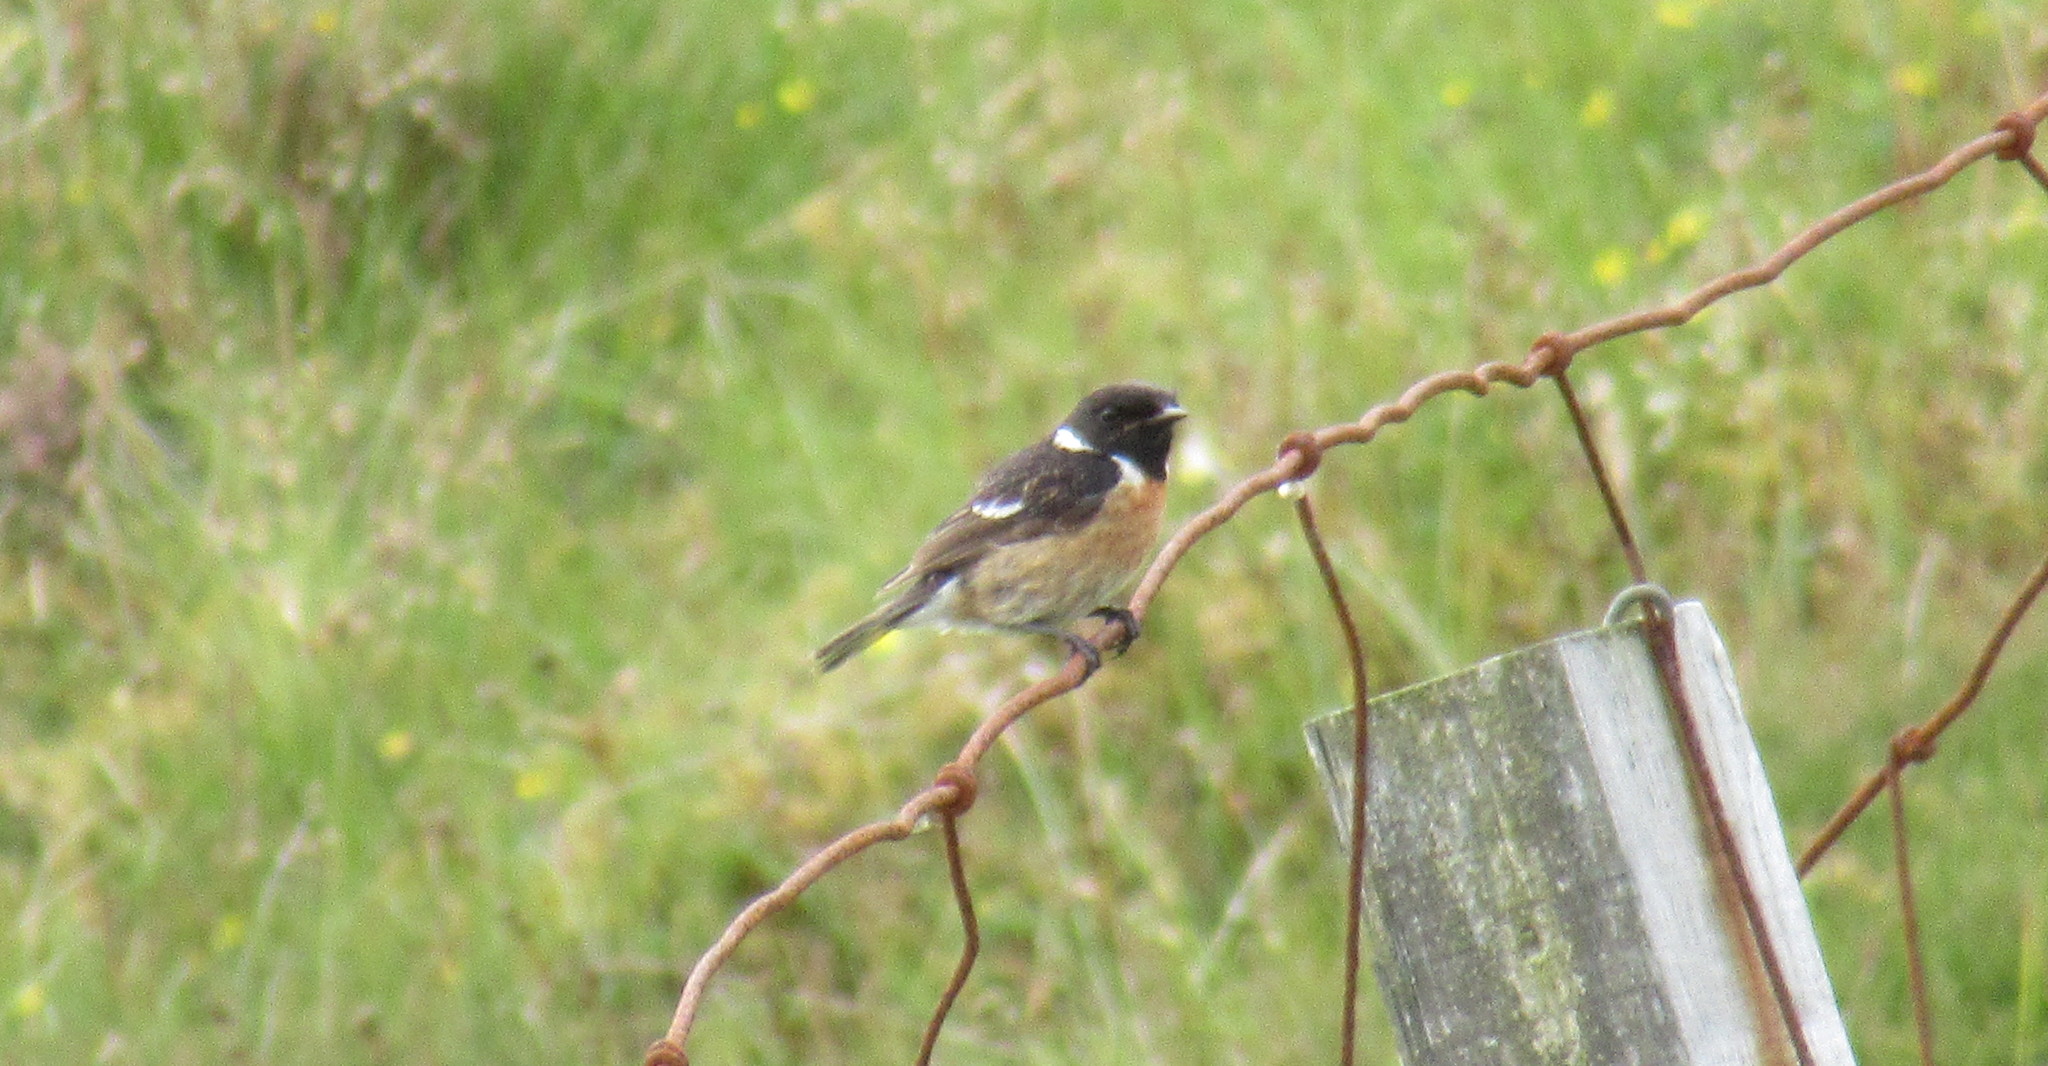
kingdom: Animalia
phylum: Chordata
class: Aves
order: Passeriformes
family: Muscicapidae
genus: Saxicola
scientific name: Saxicola rubicola
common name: European stonechat
